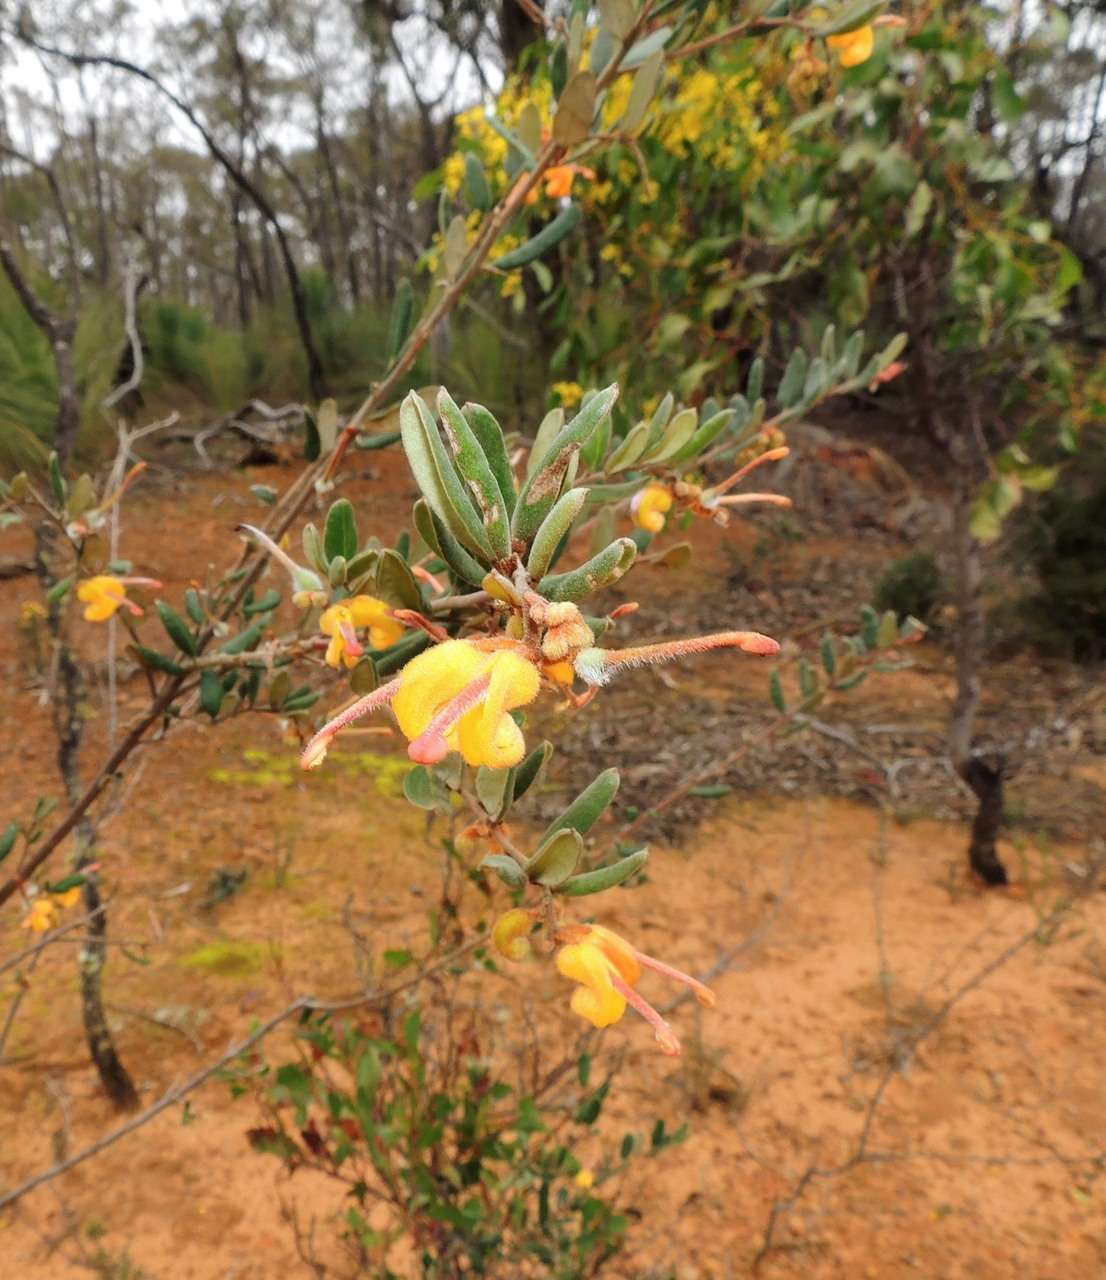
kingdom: Plantae
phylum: Tracheophyta
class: Magnoliopsida
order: Proteales
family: Proteaceae
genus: Grevillea
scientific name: Grevillea chrysophaea
